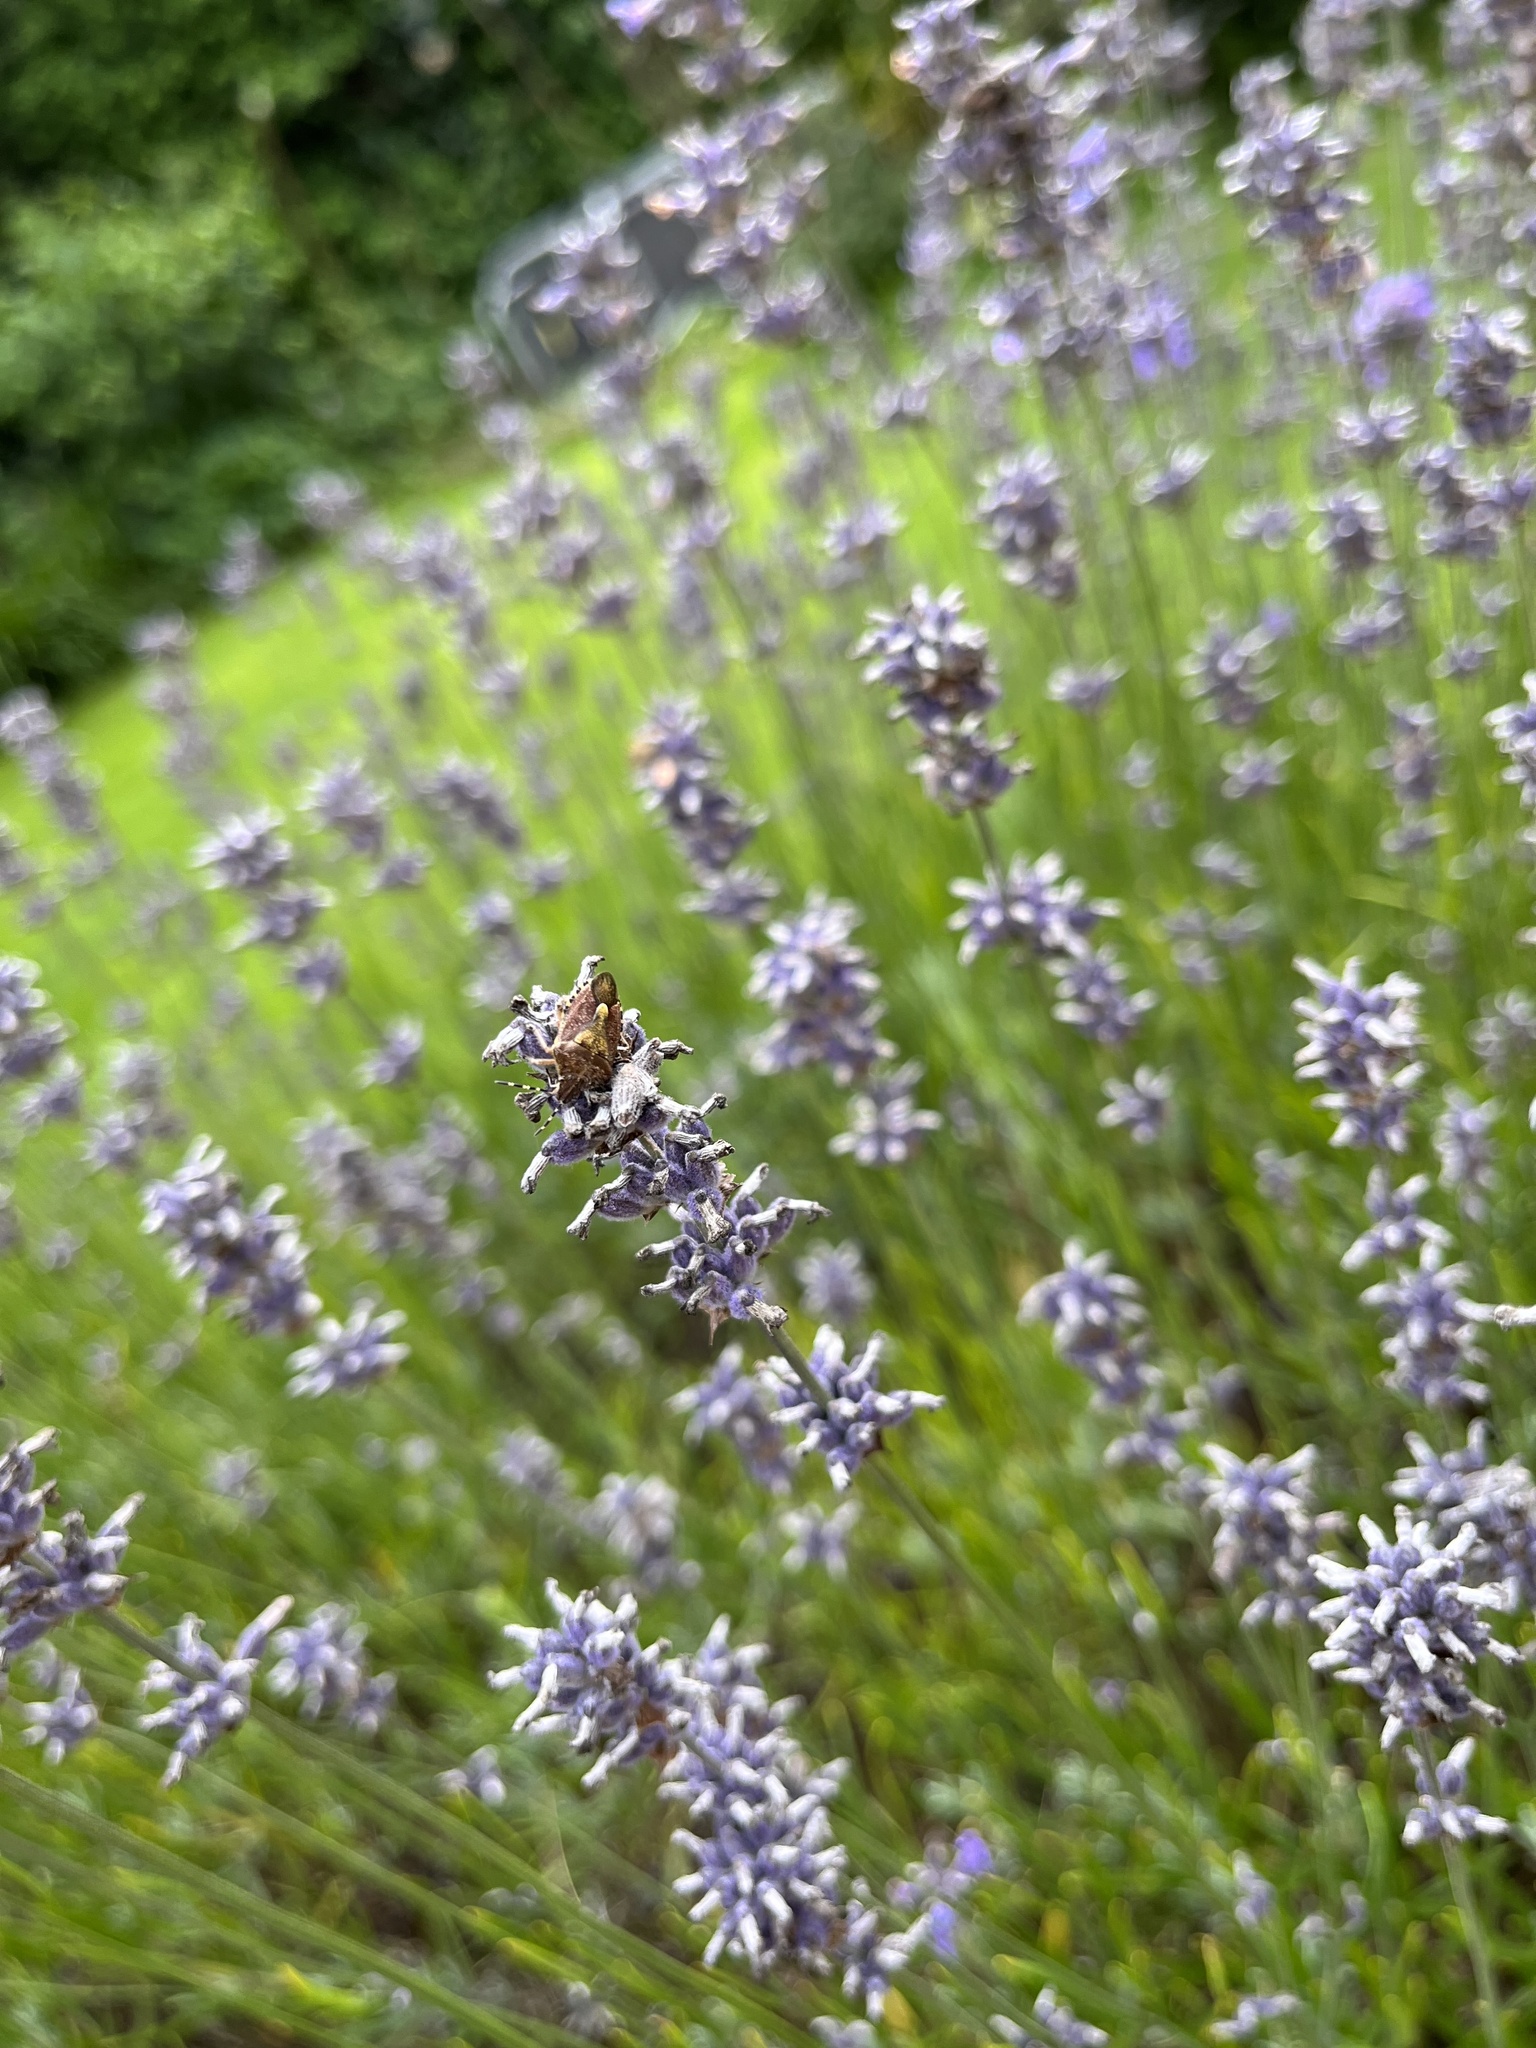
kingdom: Animalia
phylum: Arthropoda
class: Insecta
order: Hemiptera
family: Pentatomidae
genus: Dolycoris
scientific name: Dolycoris baccarum
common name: Sloe bug
